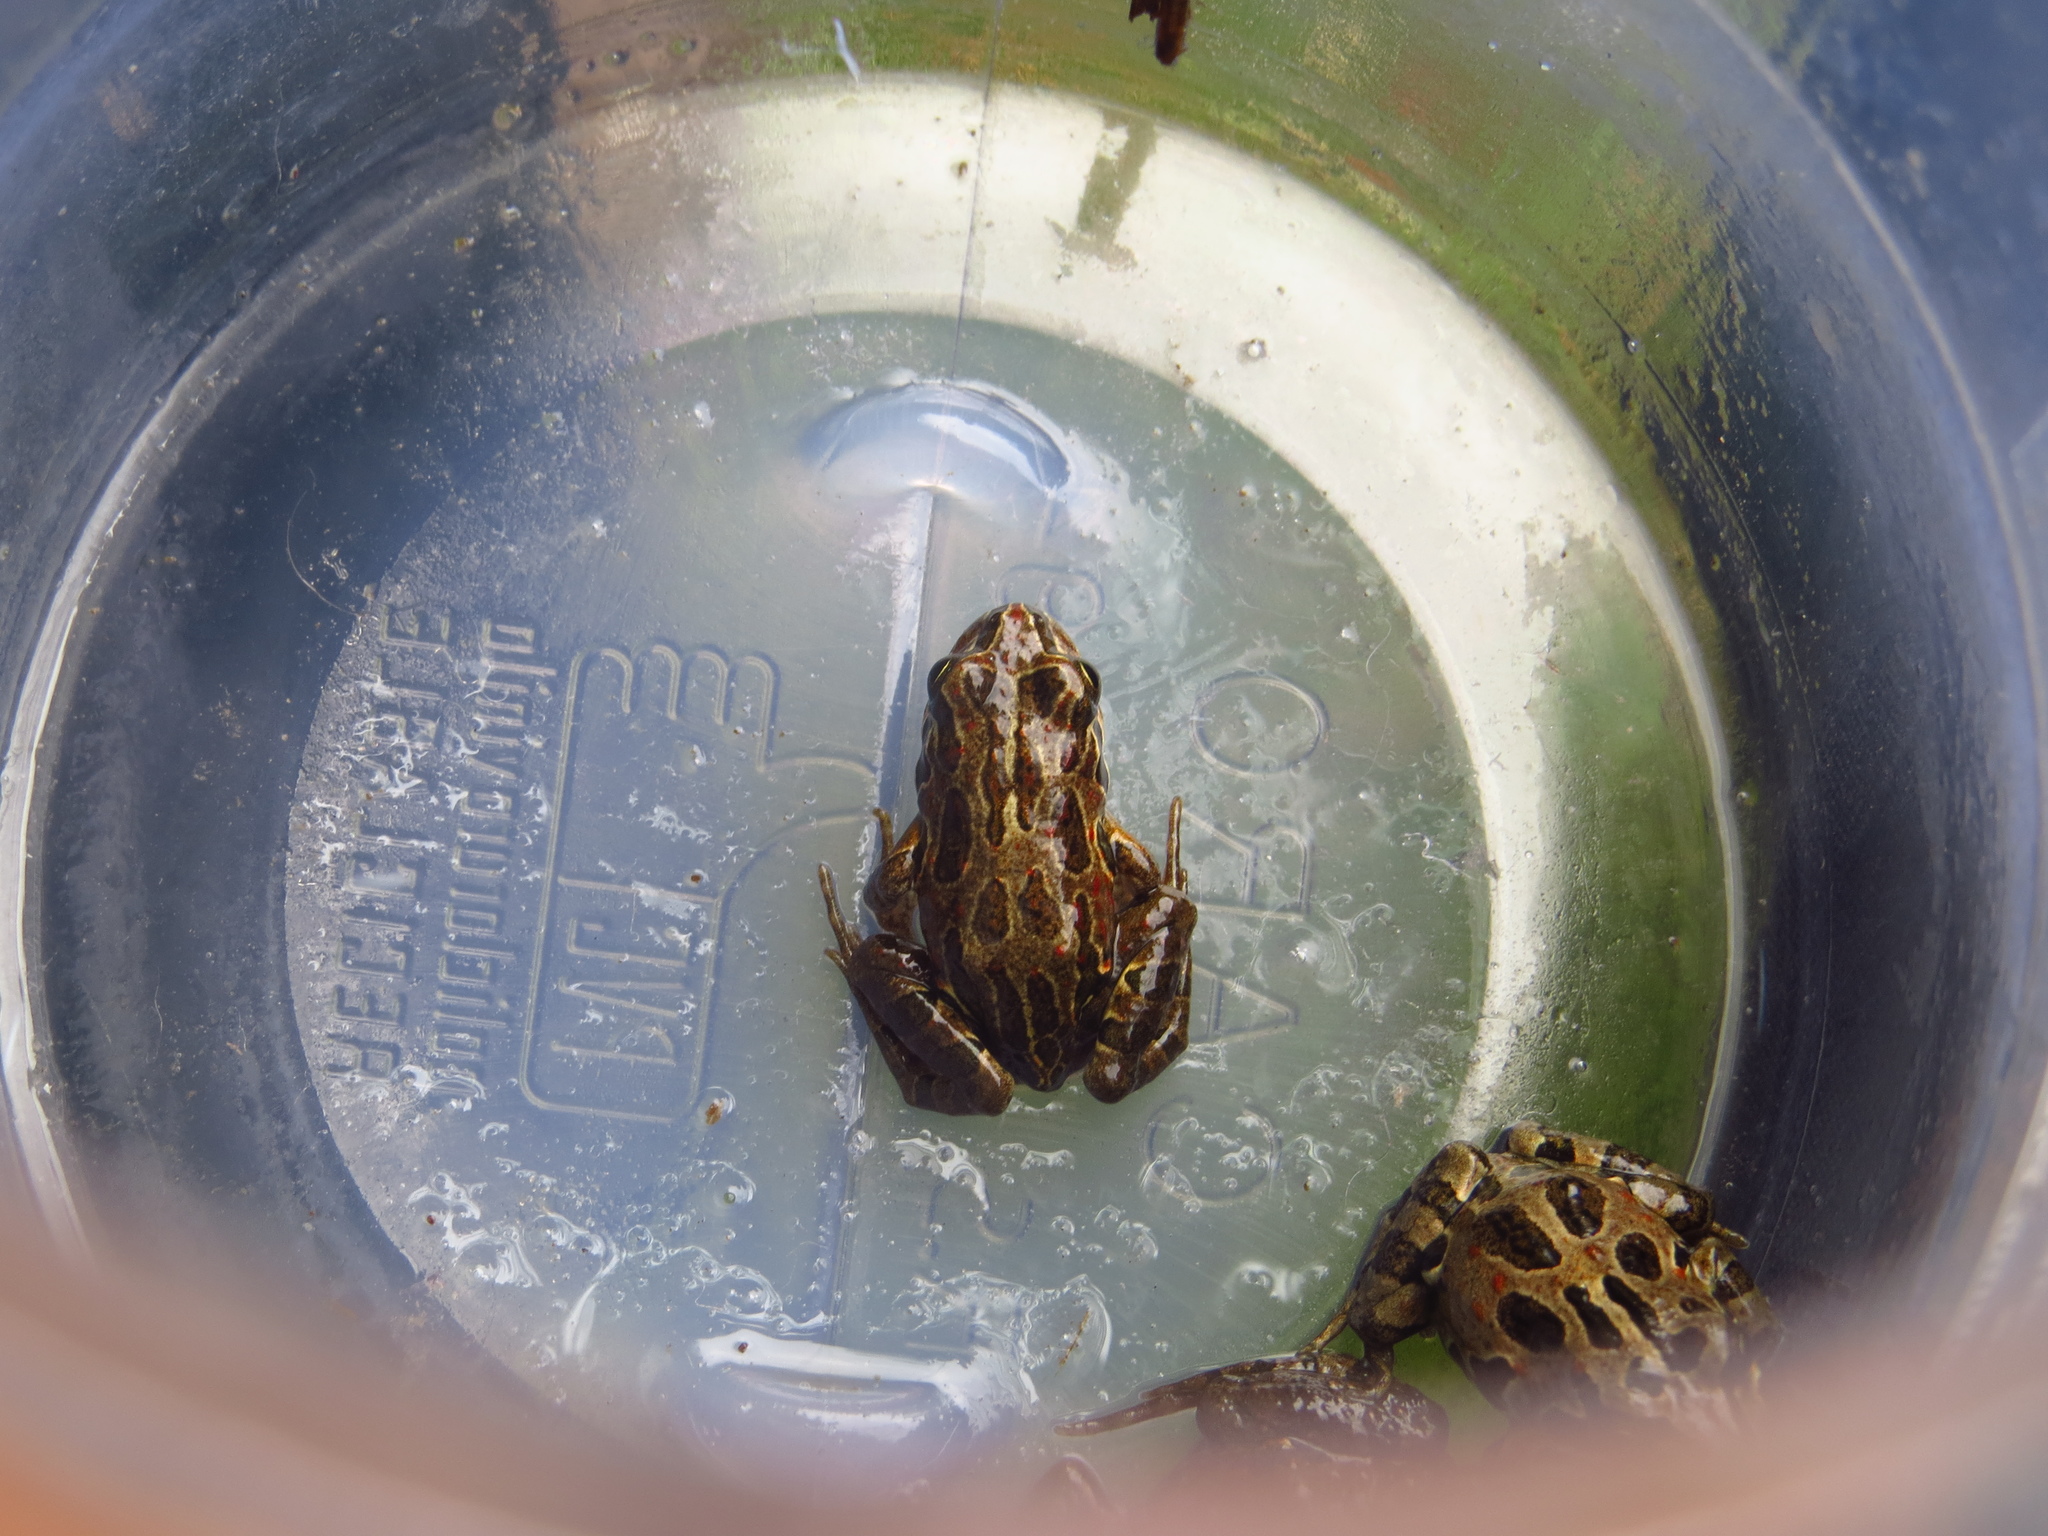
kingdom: Animalia
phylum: Chordata
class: Amphibia
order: Anura
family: Leptodactylidae
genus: Pleurodema
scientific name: Pleurodema thaul
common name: Chile four-eyed frog
